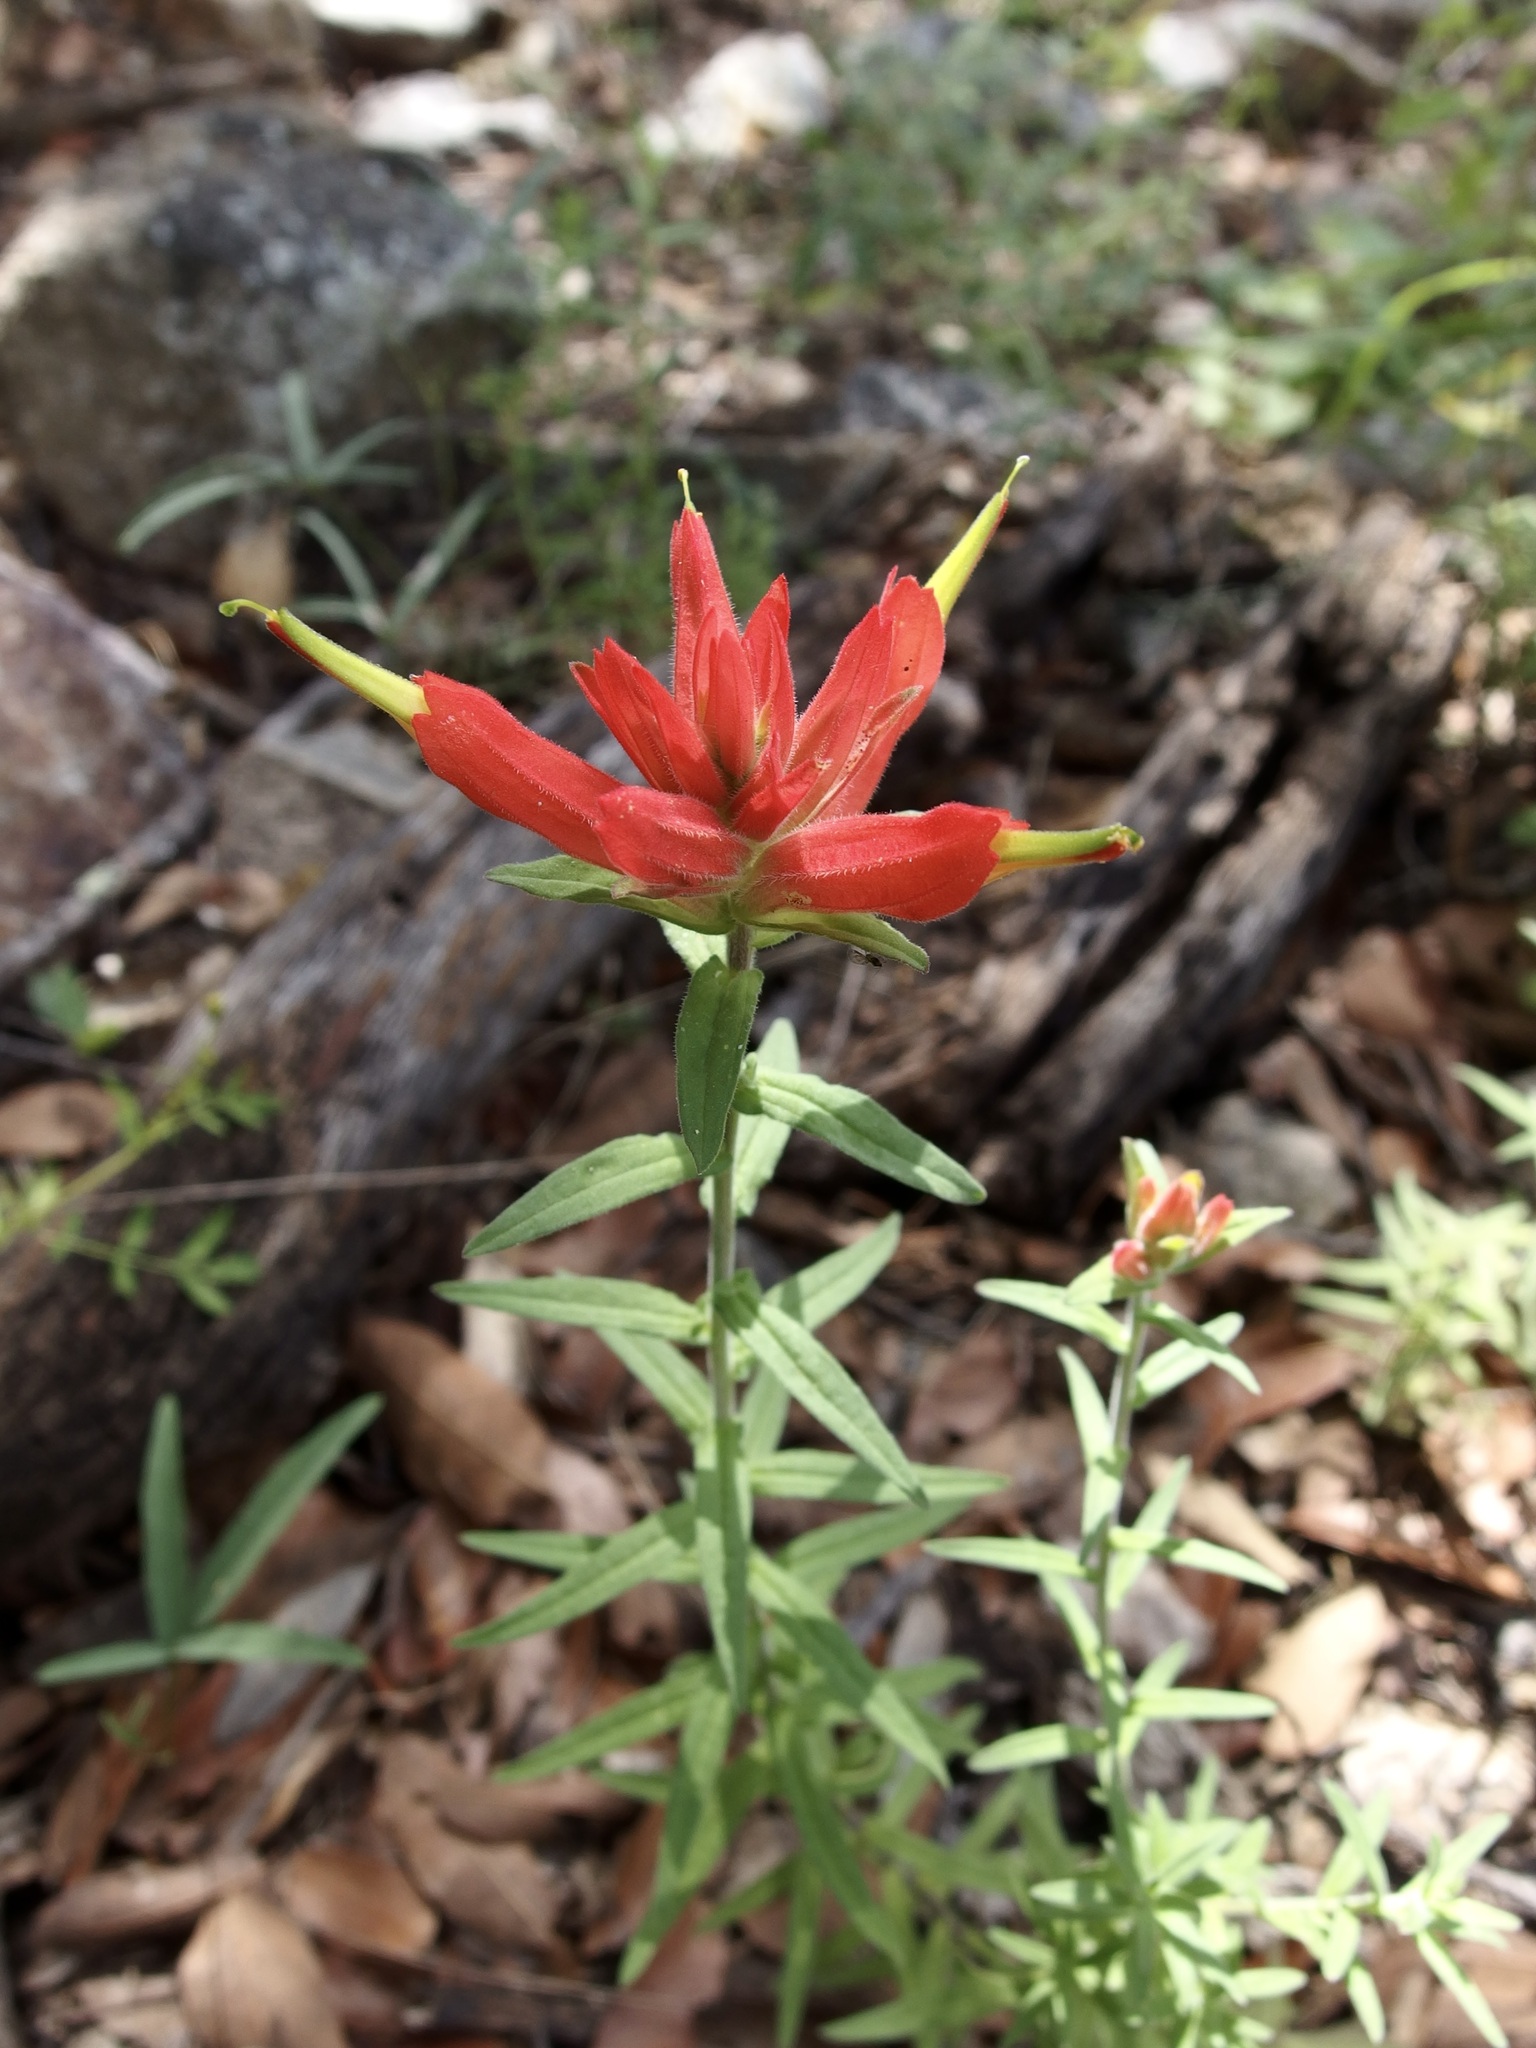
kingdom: Plantae
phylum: Tracheophyta
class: Magnoliopsida
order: Lamiales
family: Orobanchaceae
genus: Castilleja
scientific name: Castilleja tenuiflora
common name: Santa catalina indian paintbrush
